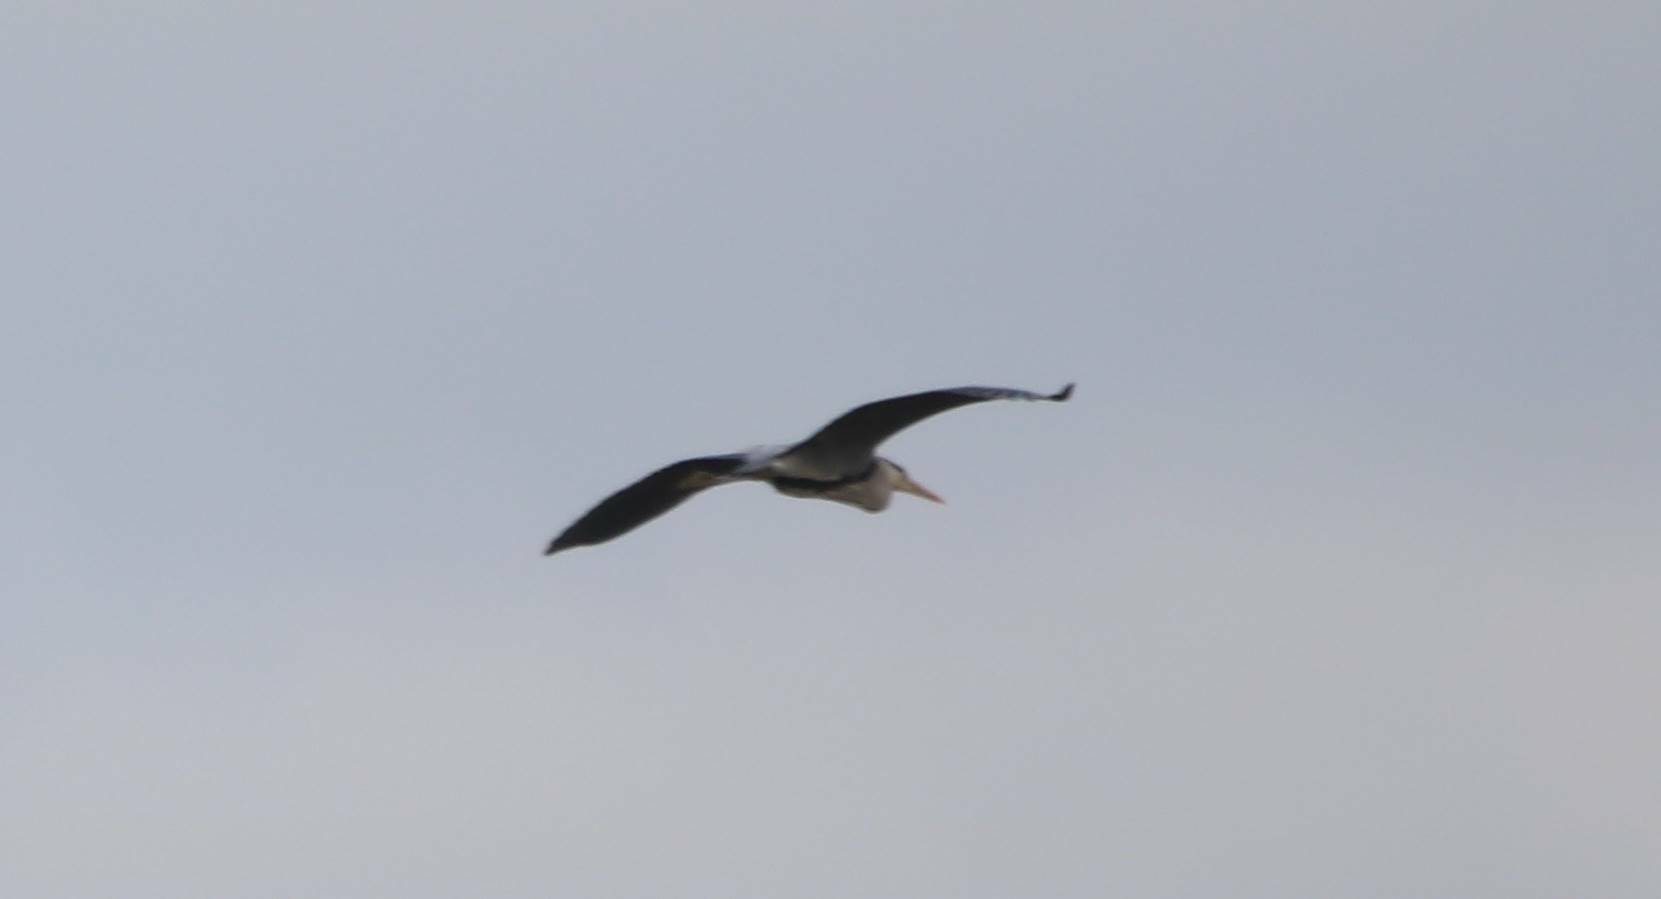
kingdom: Animalia
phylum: Chordata
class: Aves
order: Pelecaniformes
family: Ardeidae
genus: Ardea
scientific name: Ardea cinerea
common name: Grey heron
